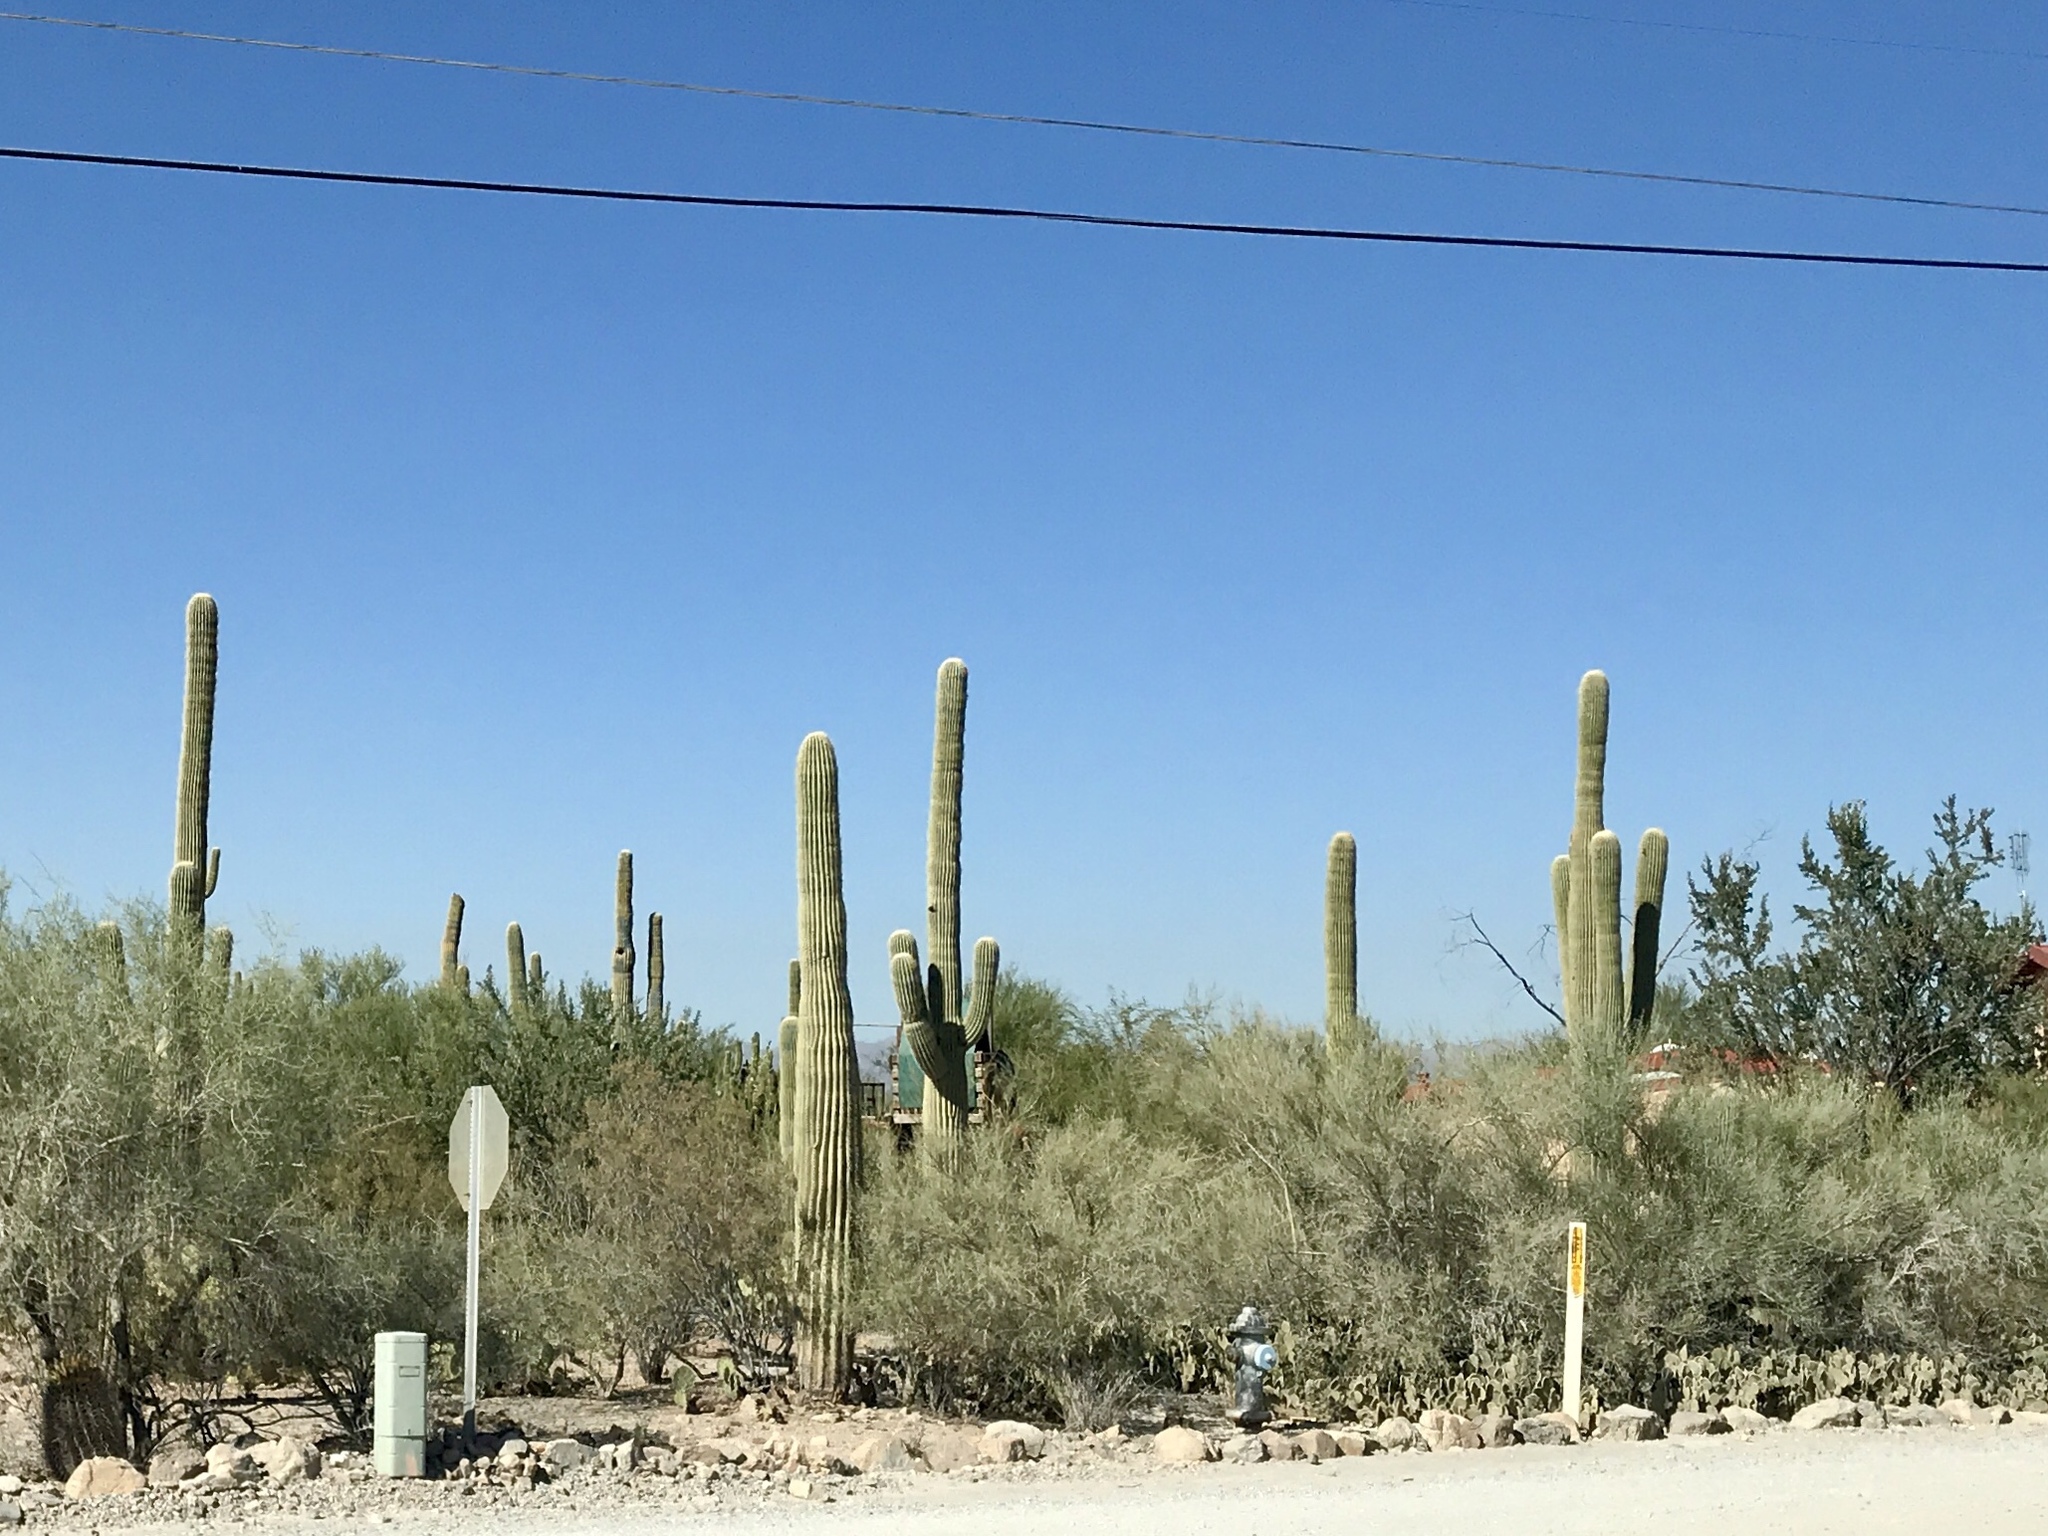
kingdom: Plantae
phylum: Tracheophyta
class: Magnoliopsida
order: Caryophyllales
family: Cactaceae
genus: Carnegiea
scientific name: Carnegiea gigantea
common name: Saguaro
